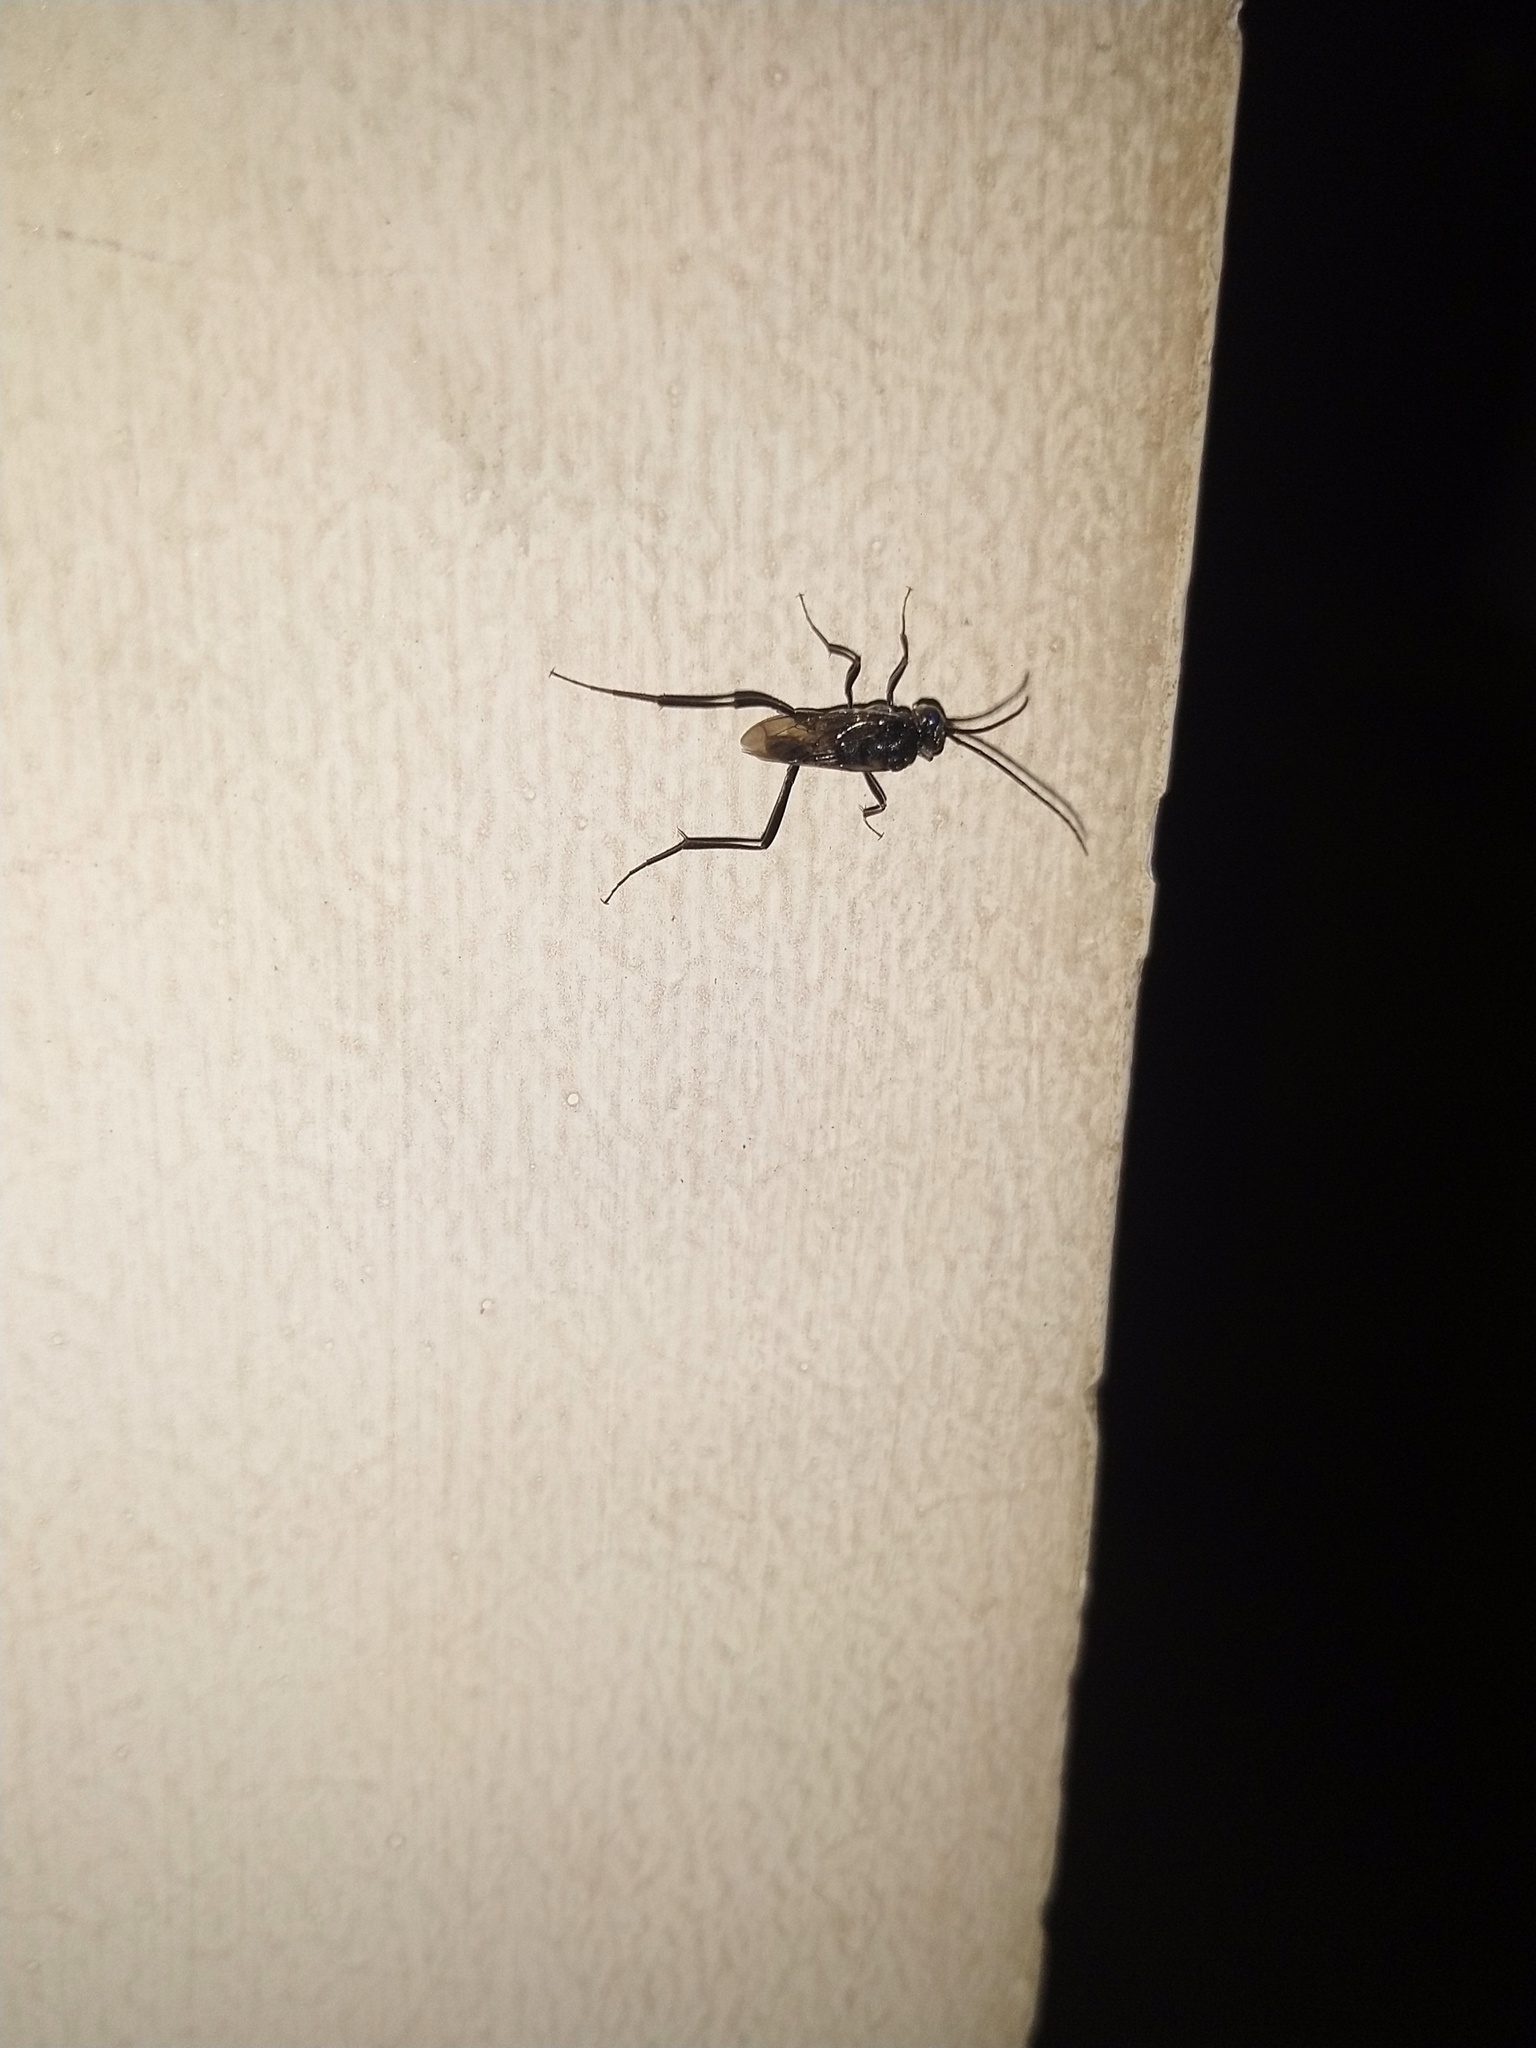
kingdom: Animalia
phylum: Arthropoda
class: Insecta
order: Hymenoptera
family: Evaniidae
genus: Evania
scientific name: Evania appendigaster
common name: Ensign wasp
